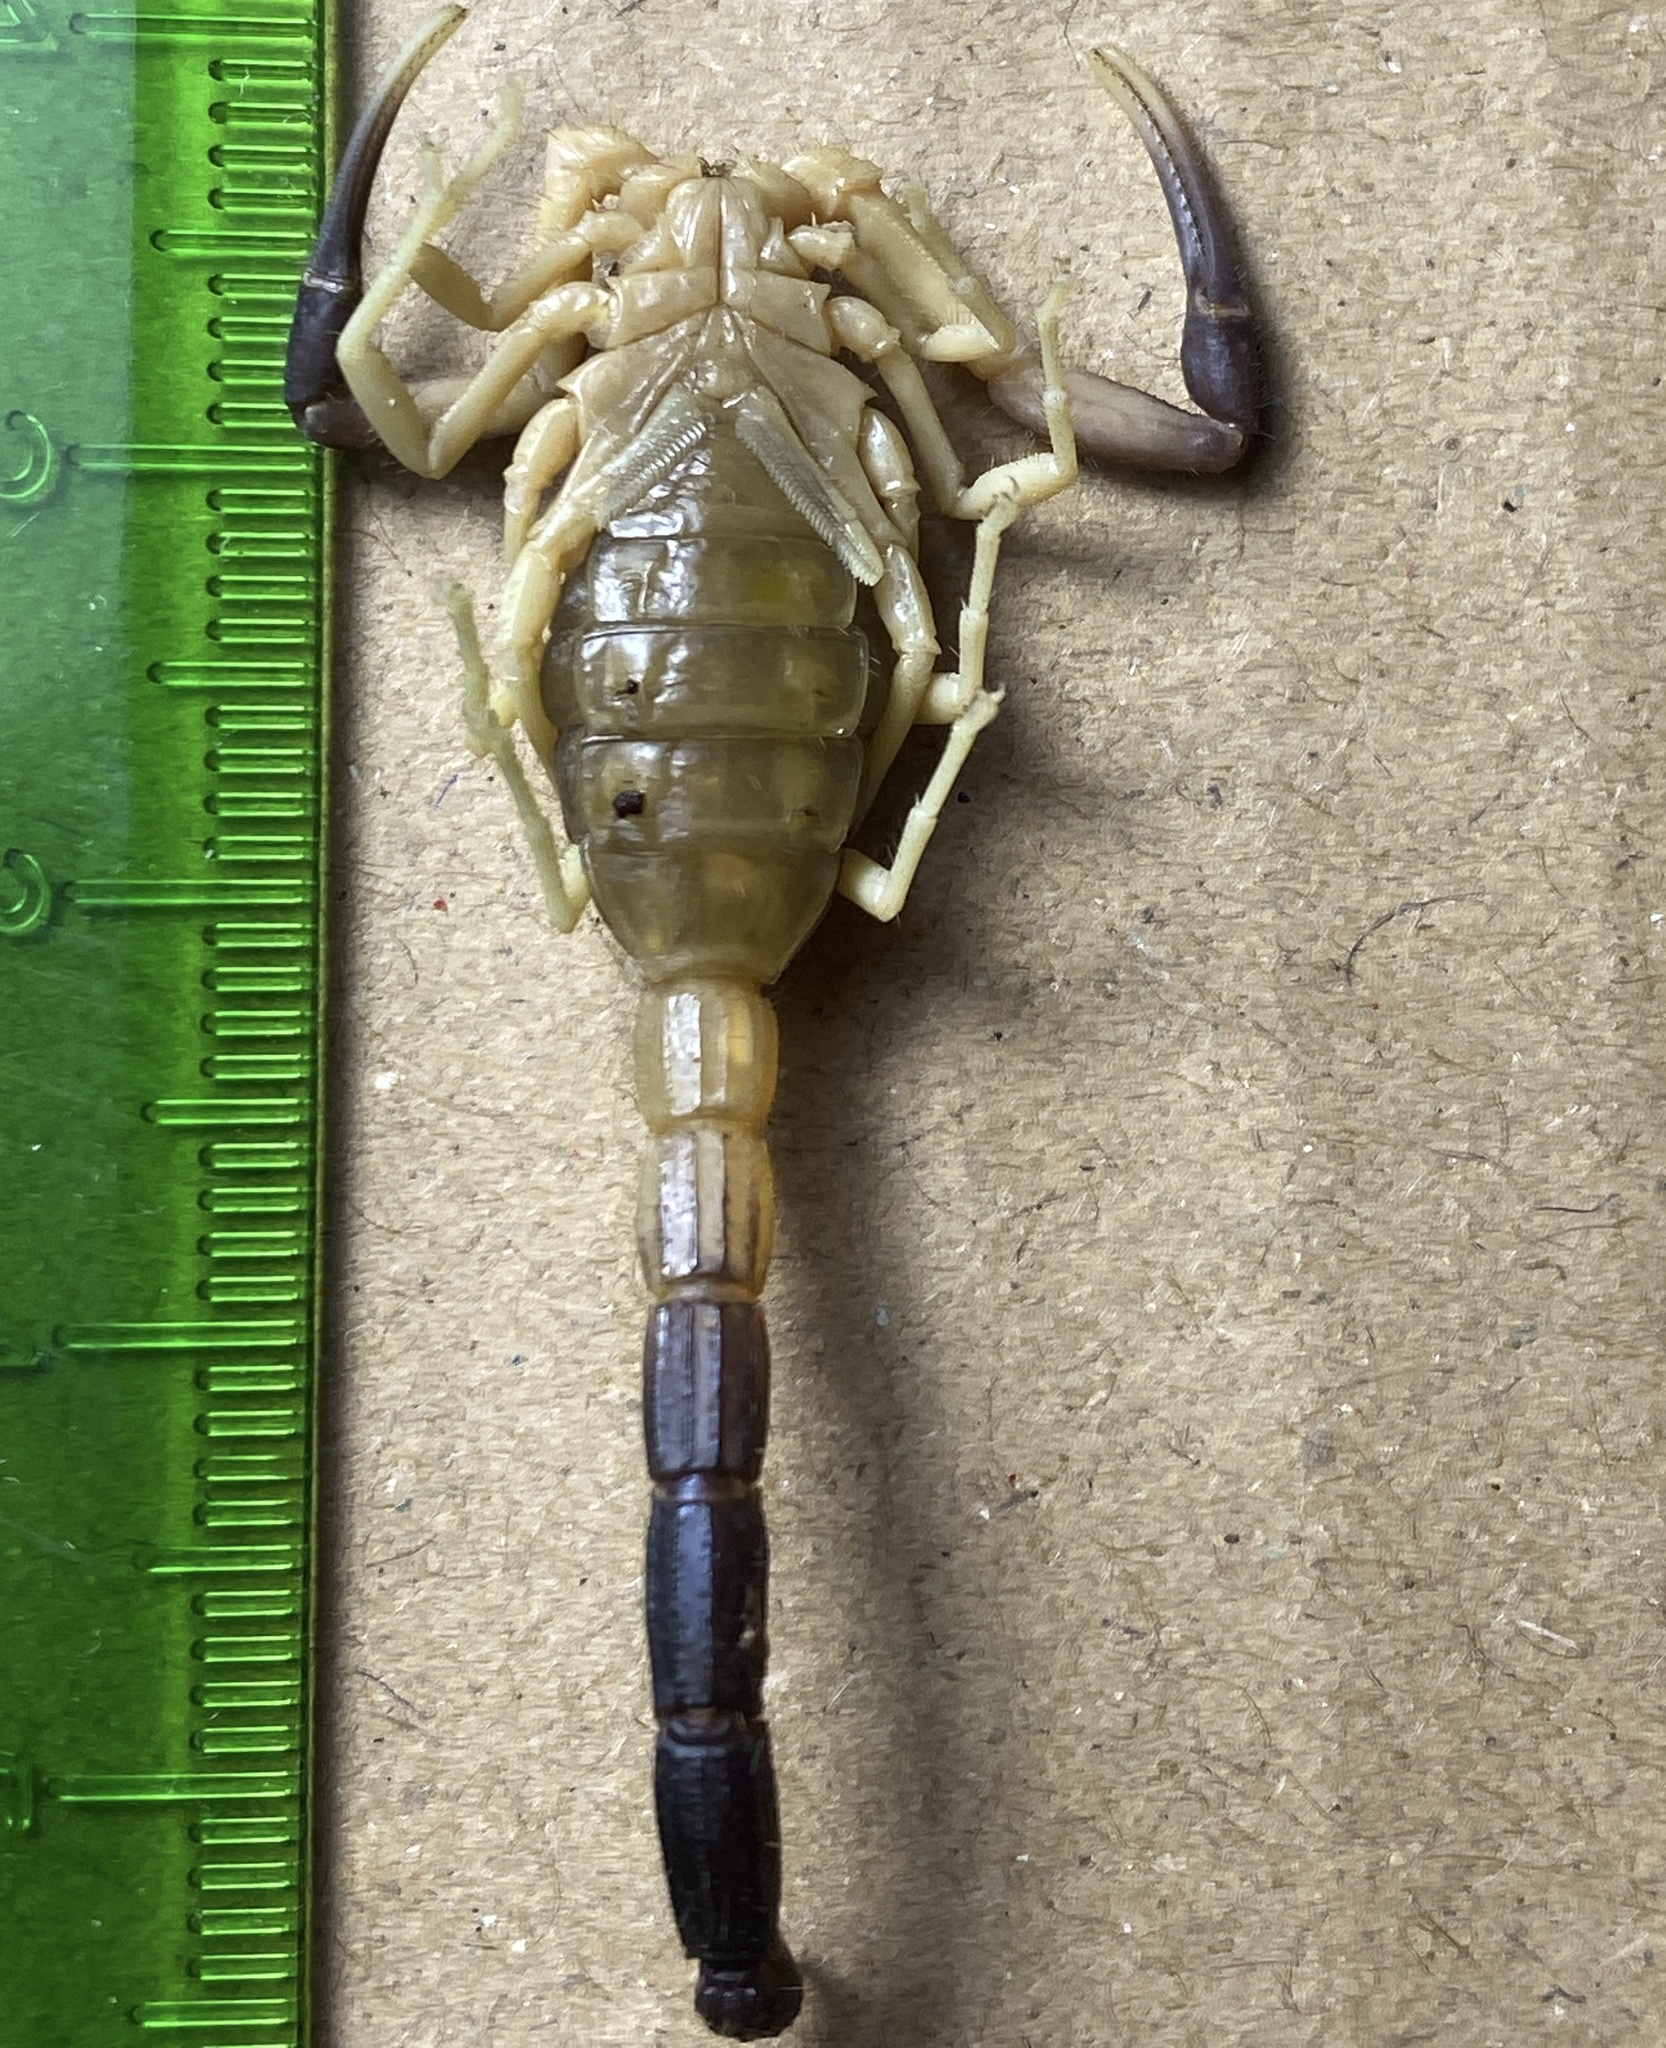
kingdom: Animalia
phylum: Arthropoda
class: Arachnida
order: Scorpiones
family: Buthidae
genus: Hottentotta
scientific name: Hottentotta jayakari
